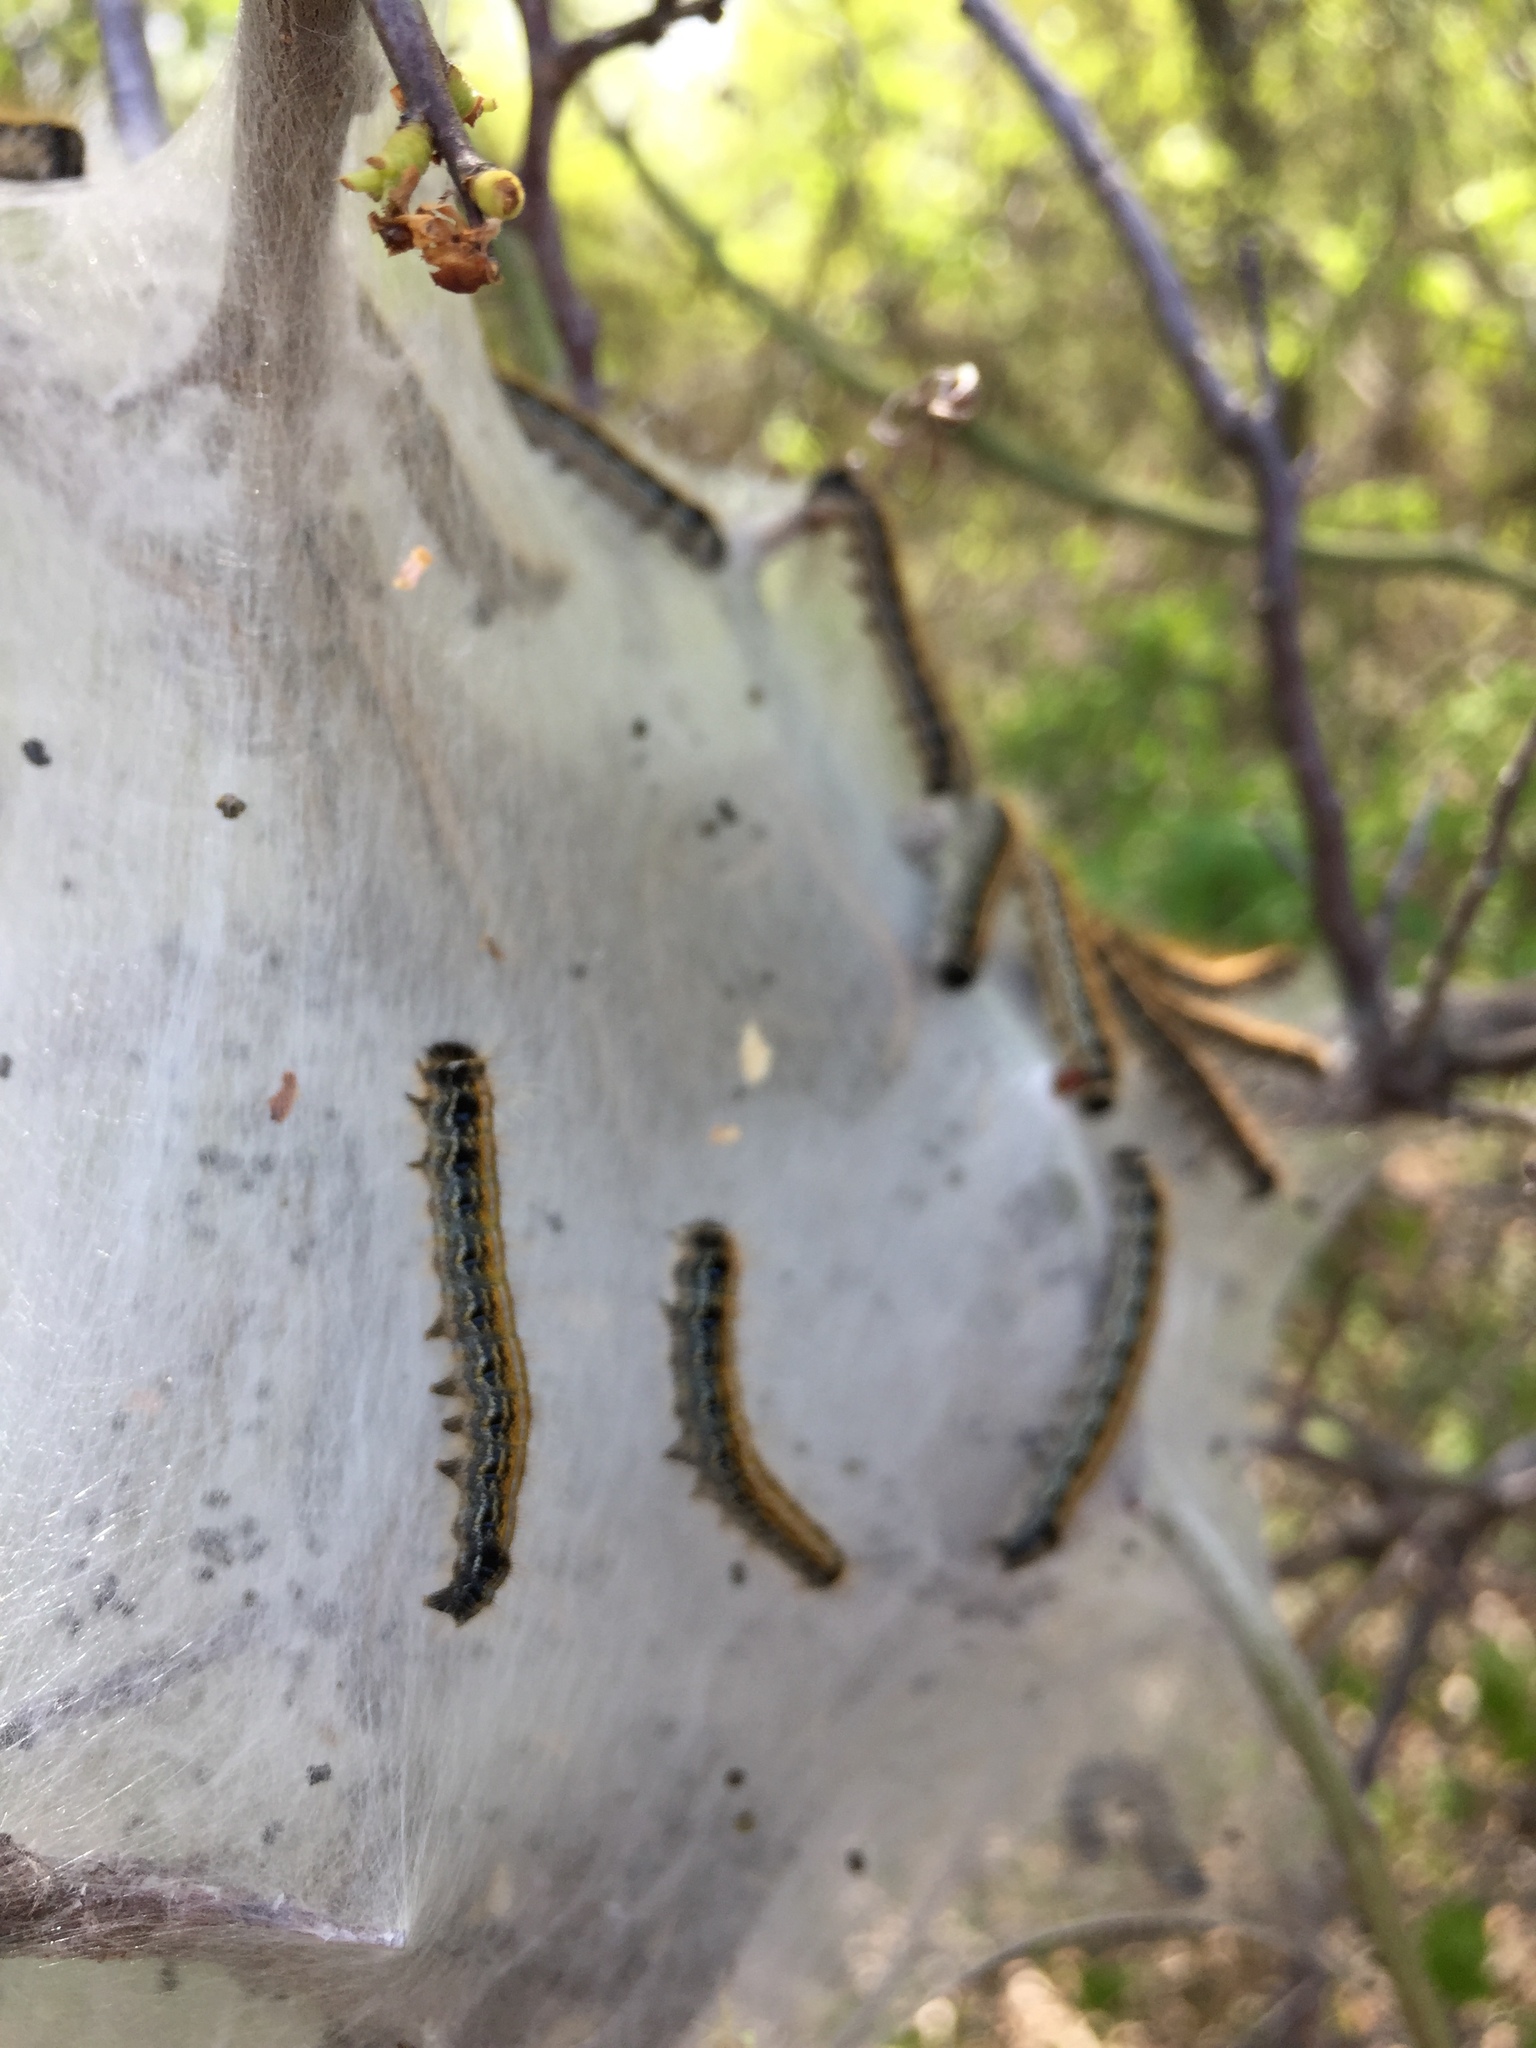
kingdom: Animalia
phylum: Arthropoda
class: Insecta
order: Lepidoptera
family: Lasiocampidae
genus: Malacosoma
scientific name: Malacosoma americana
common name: Eastern tent caterpillar moth
